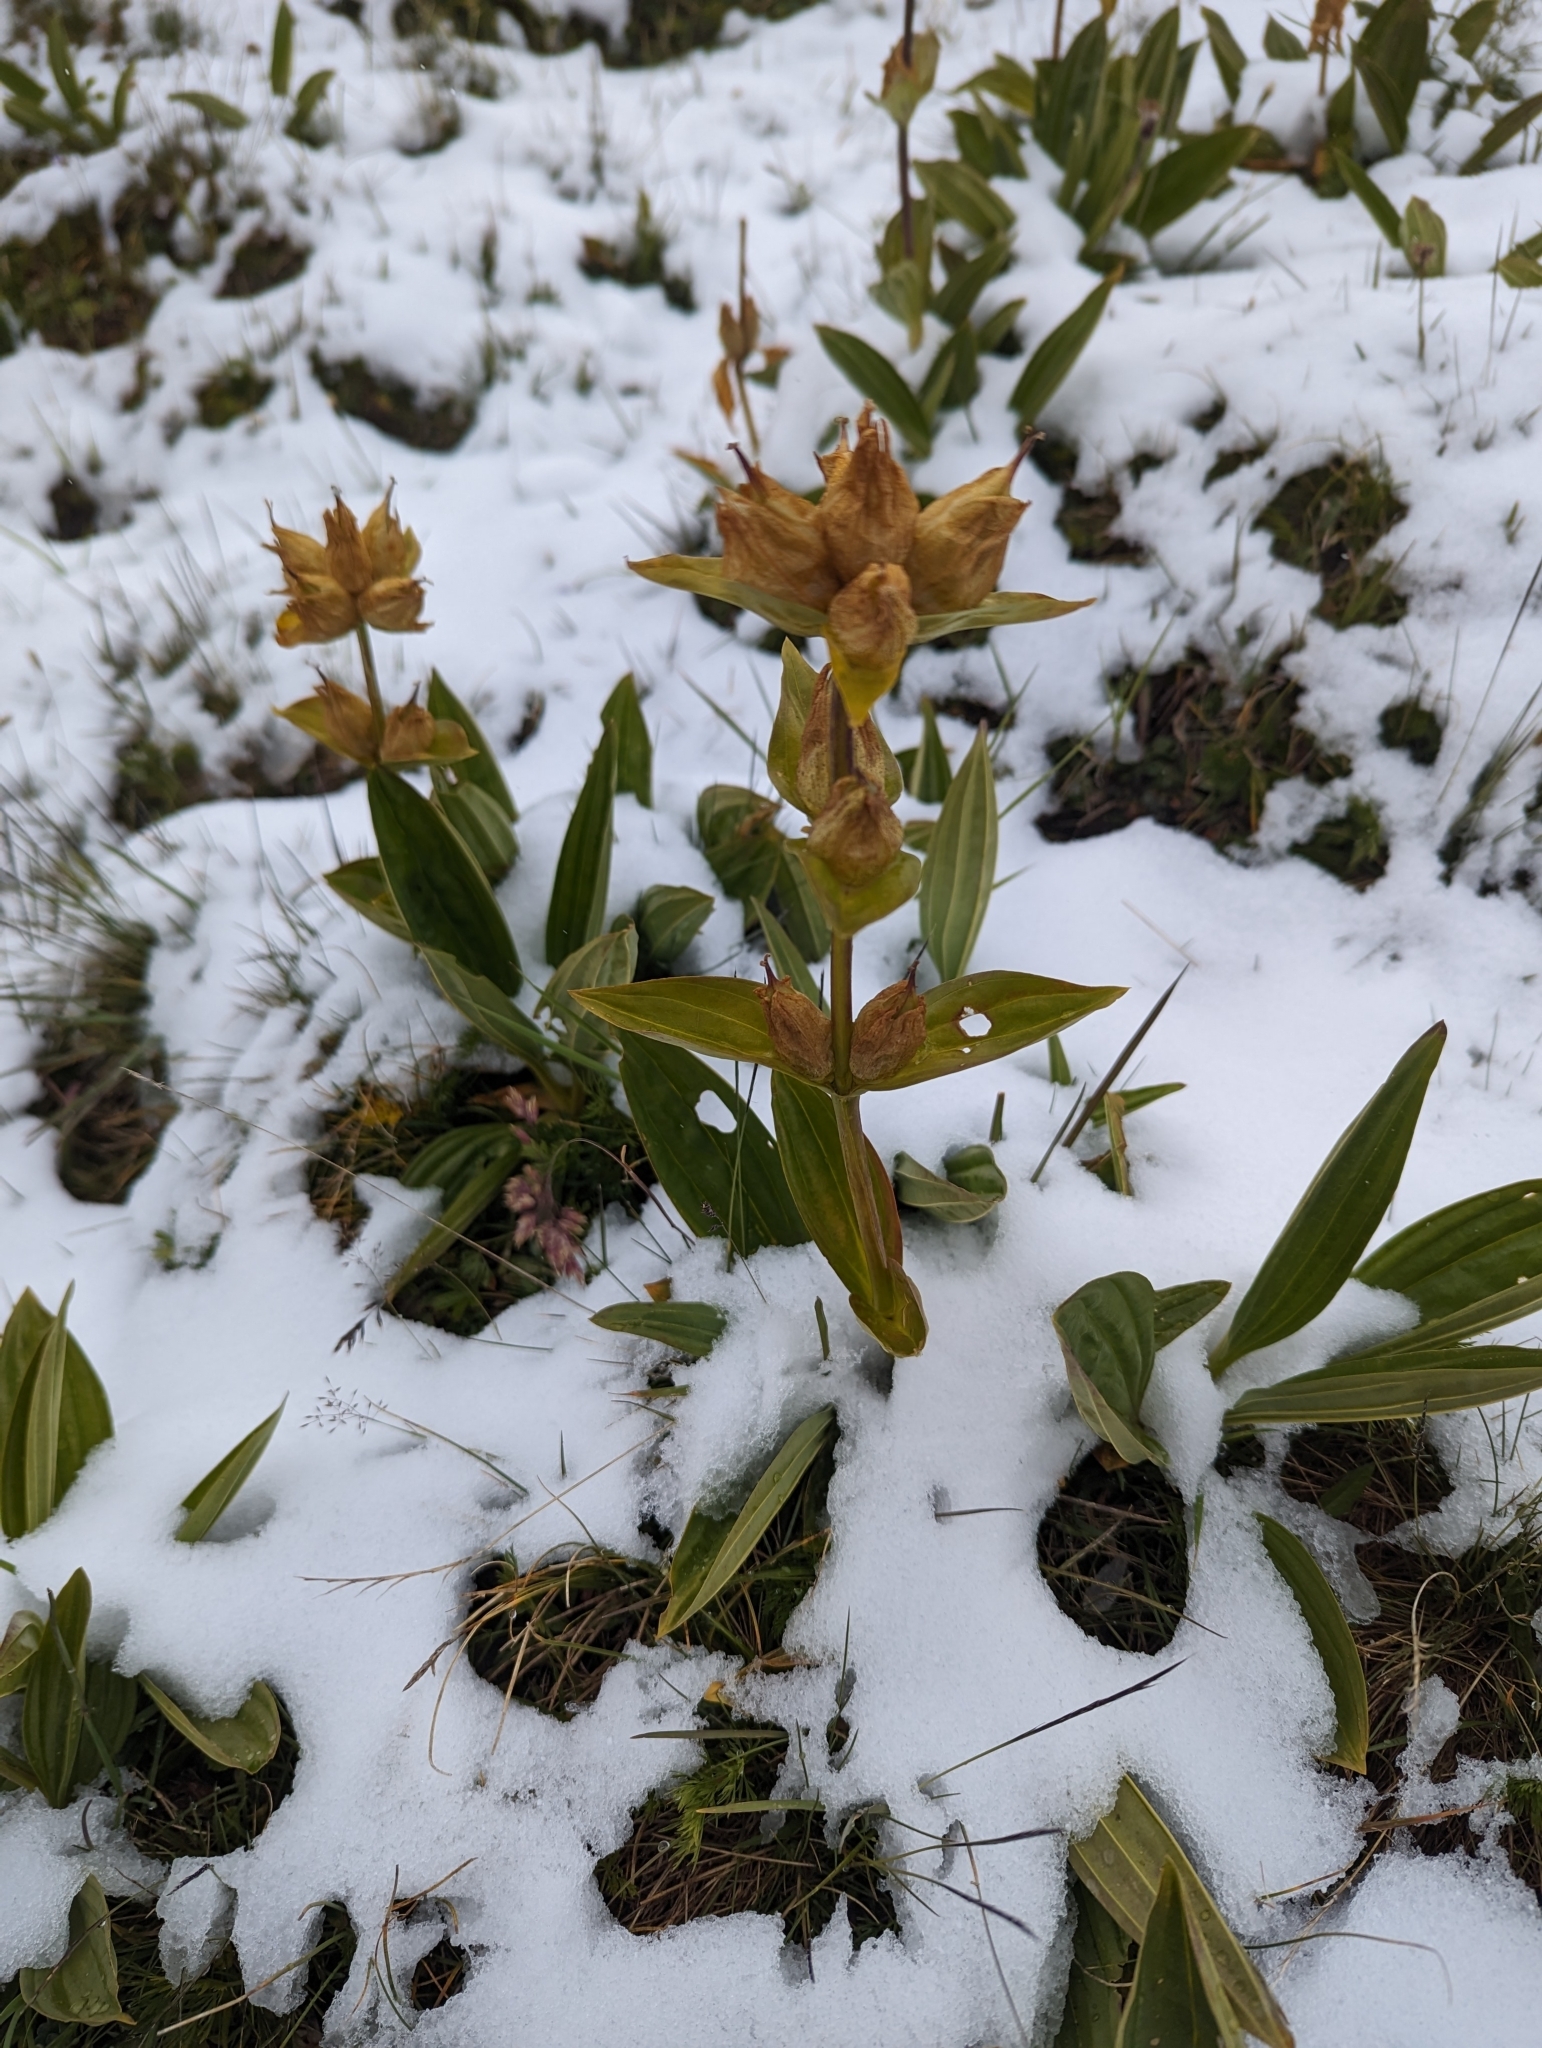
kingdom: Plantae
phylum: Tracheophyta
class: Magnoliopsida
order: Gentianales
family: Gentianaceae
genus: Gentiana
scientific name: Gentiana punctata
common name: Spotted gentian
